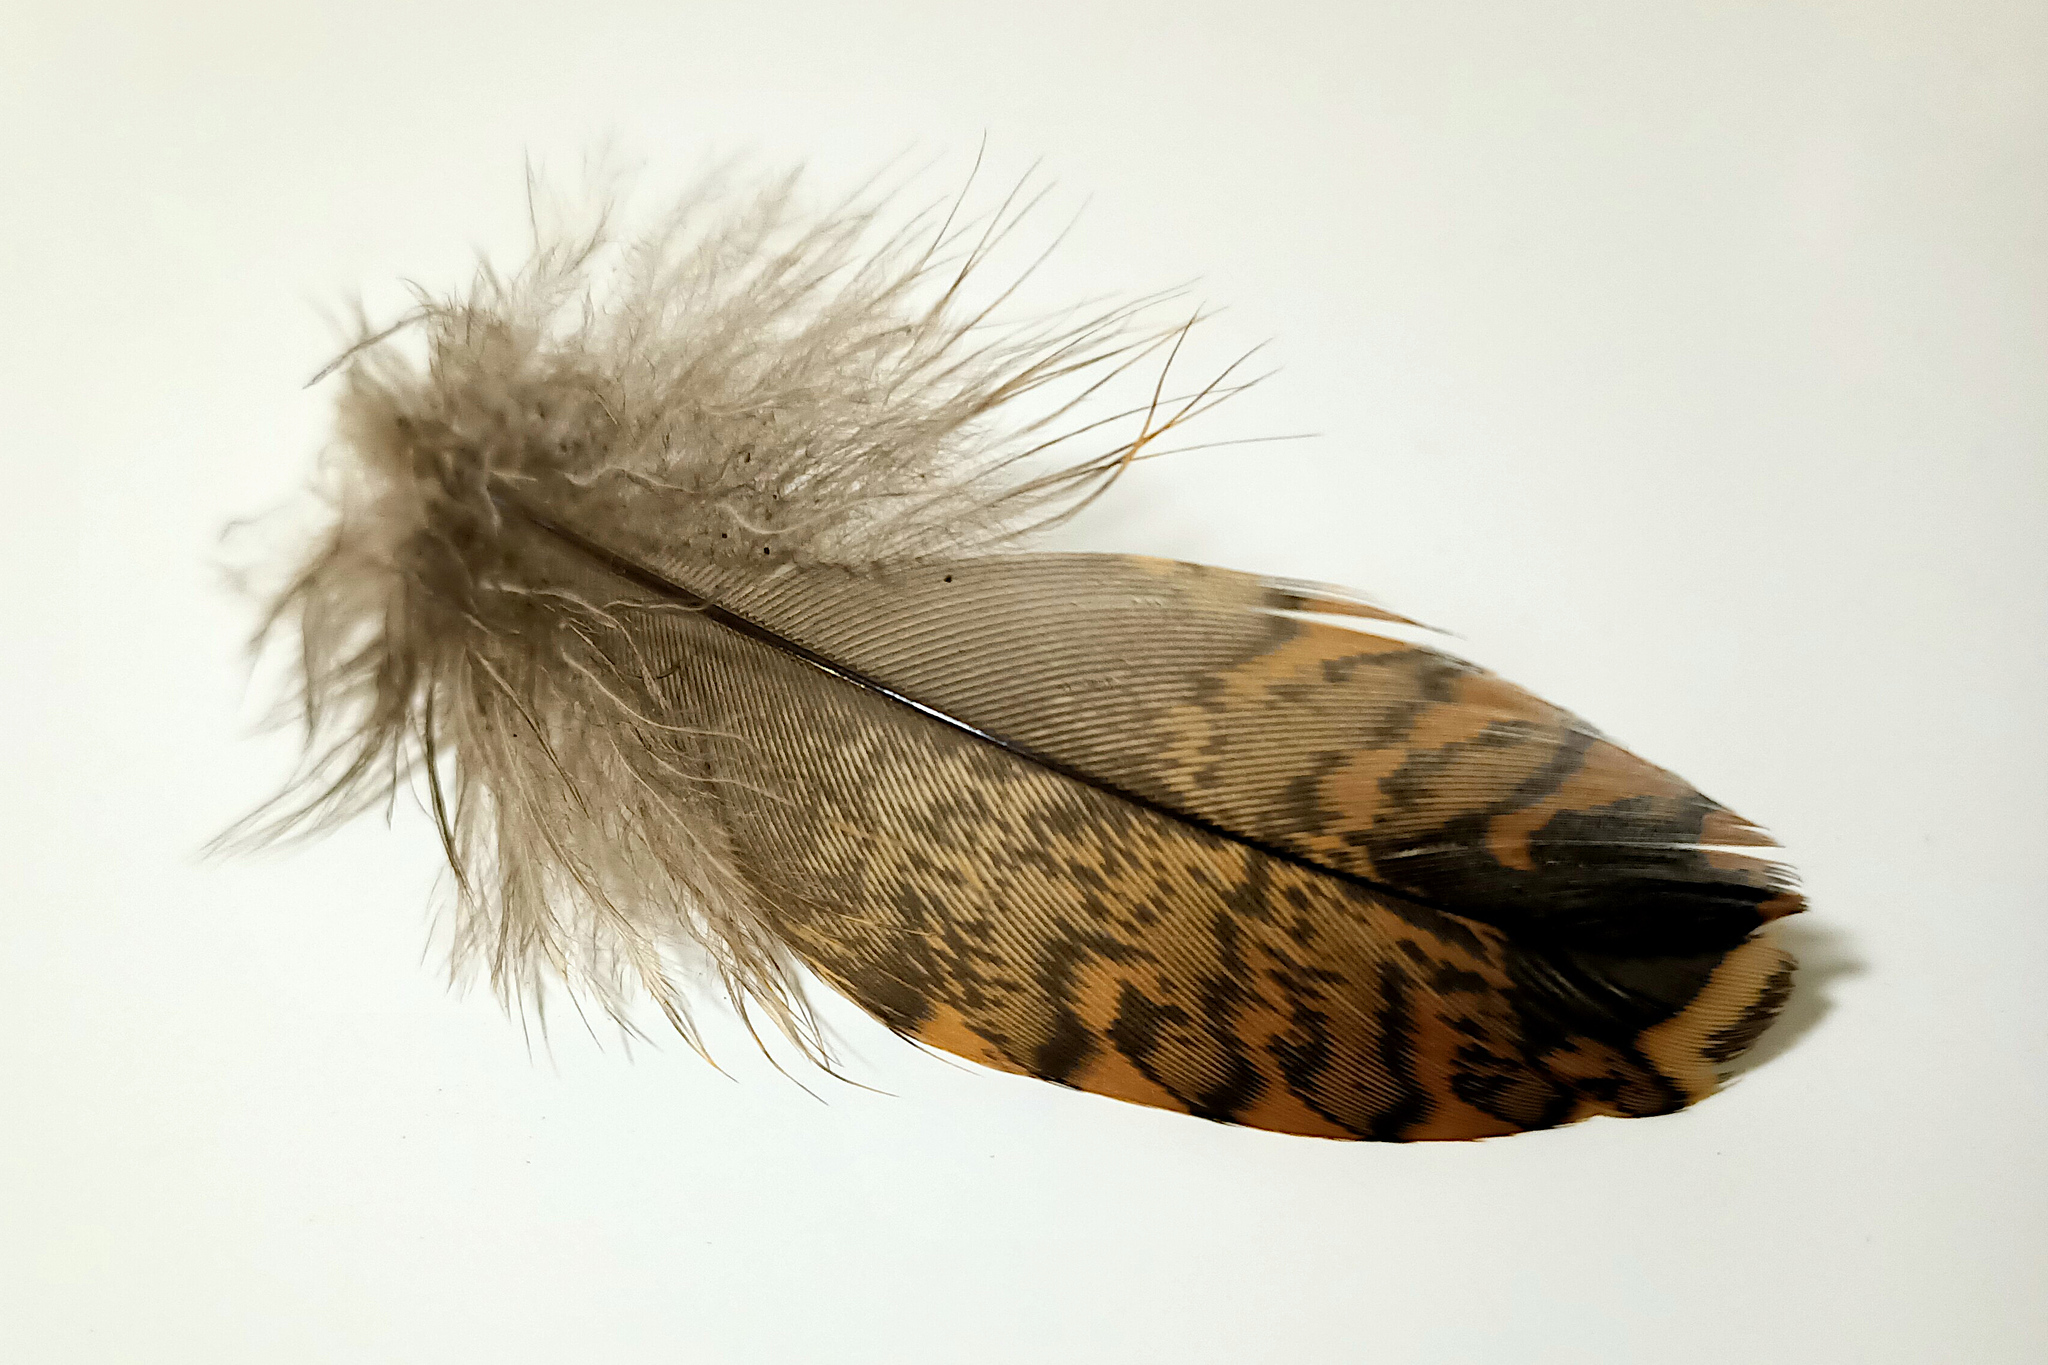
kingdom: Animalia
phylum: Chordata
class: Aves
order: Charadriiformes
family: Scolopacidae
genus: Scolopax
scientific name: Scolopax rusticola
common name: Eurasian woodcock
